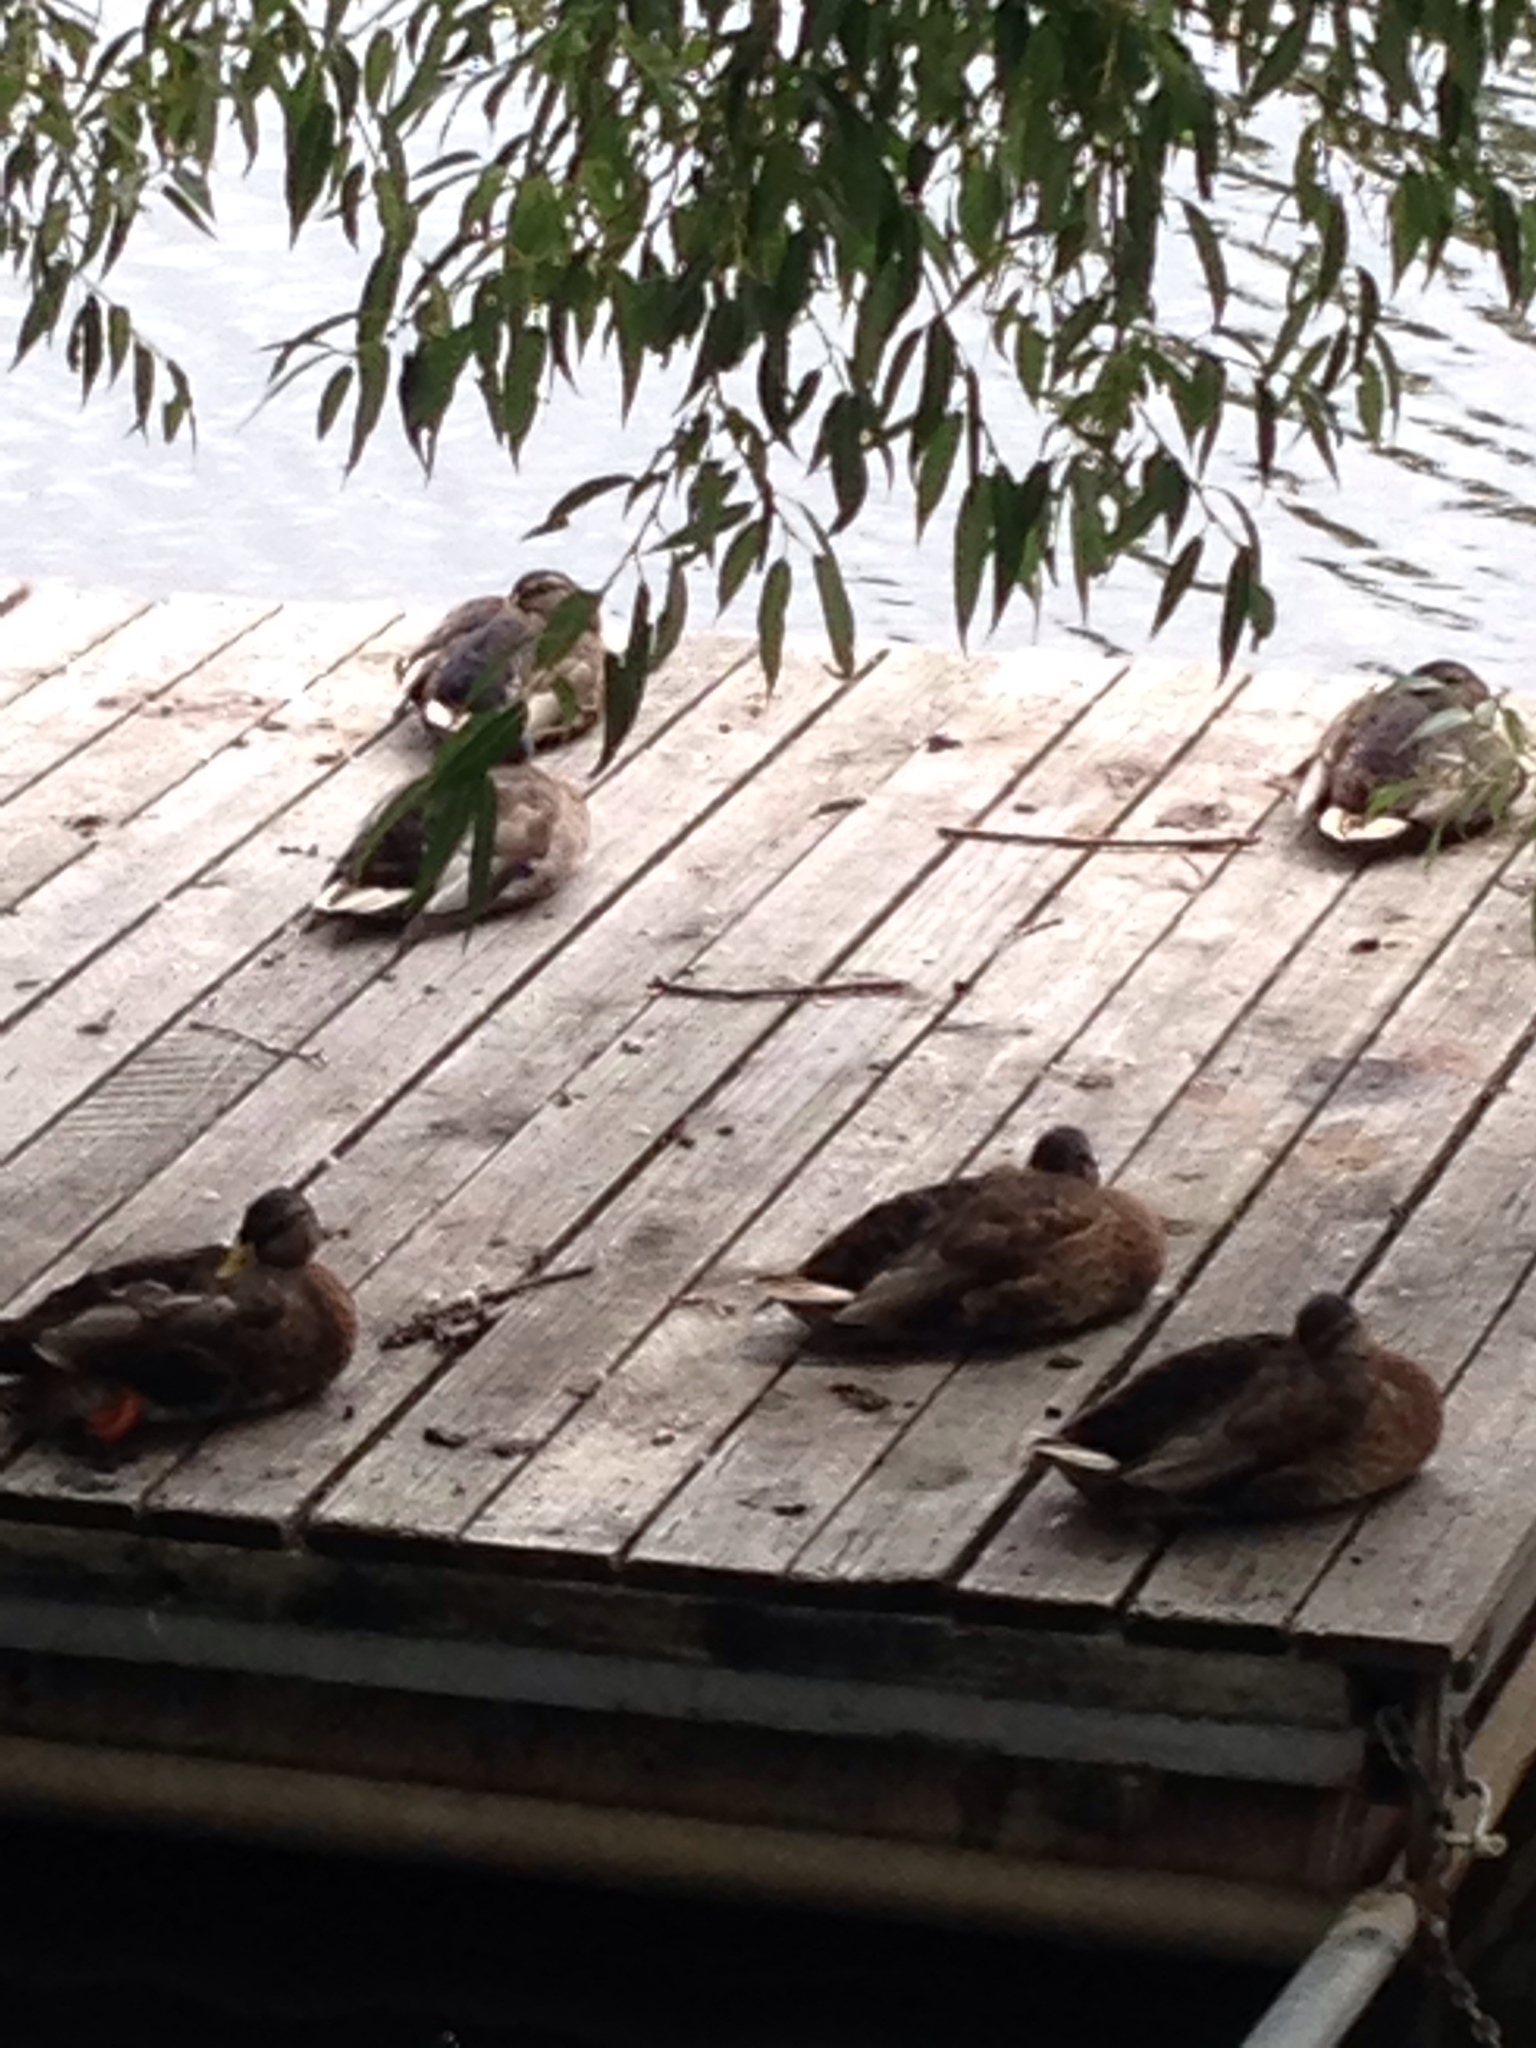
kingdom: Animalia
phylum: Chordata
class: Aves
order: Anseriformes
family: Anatidae
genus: Anas
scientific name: Anas platyrhynchos
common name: Mallard
